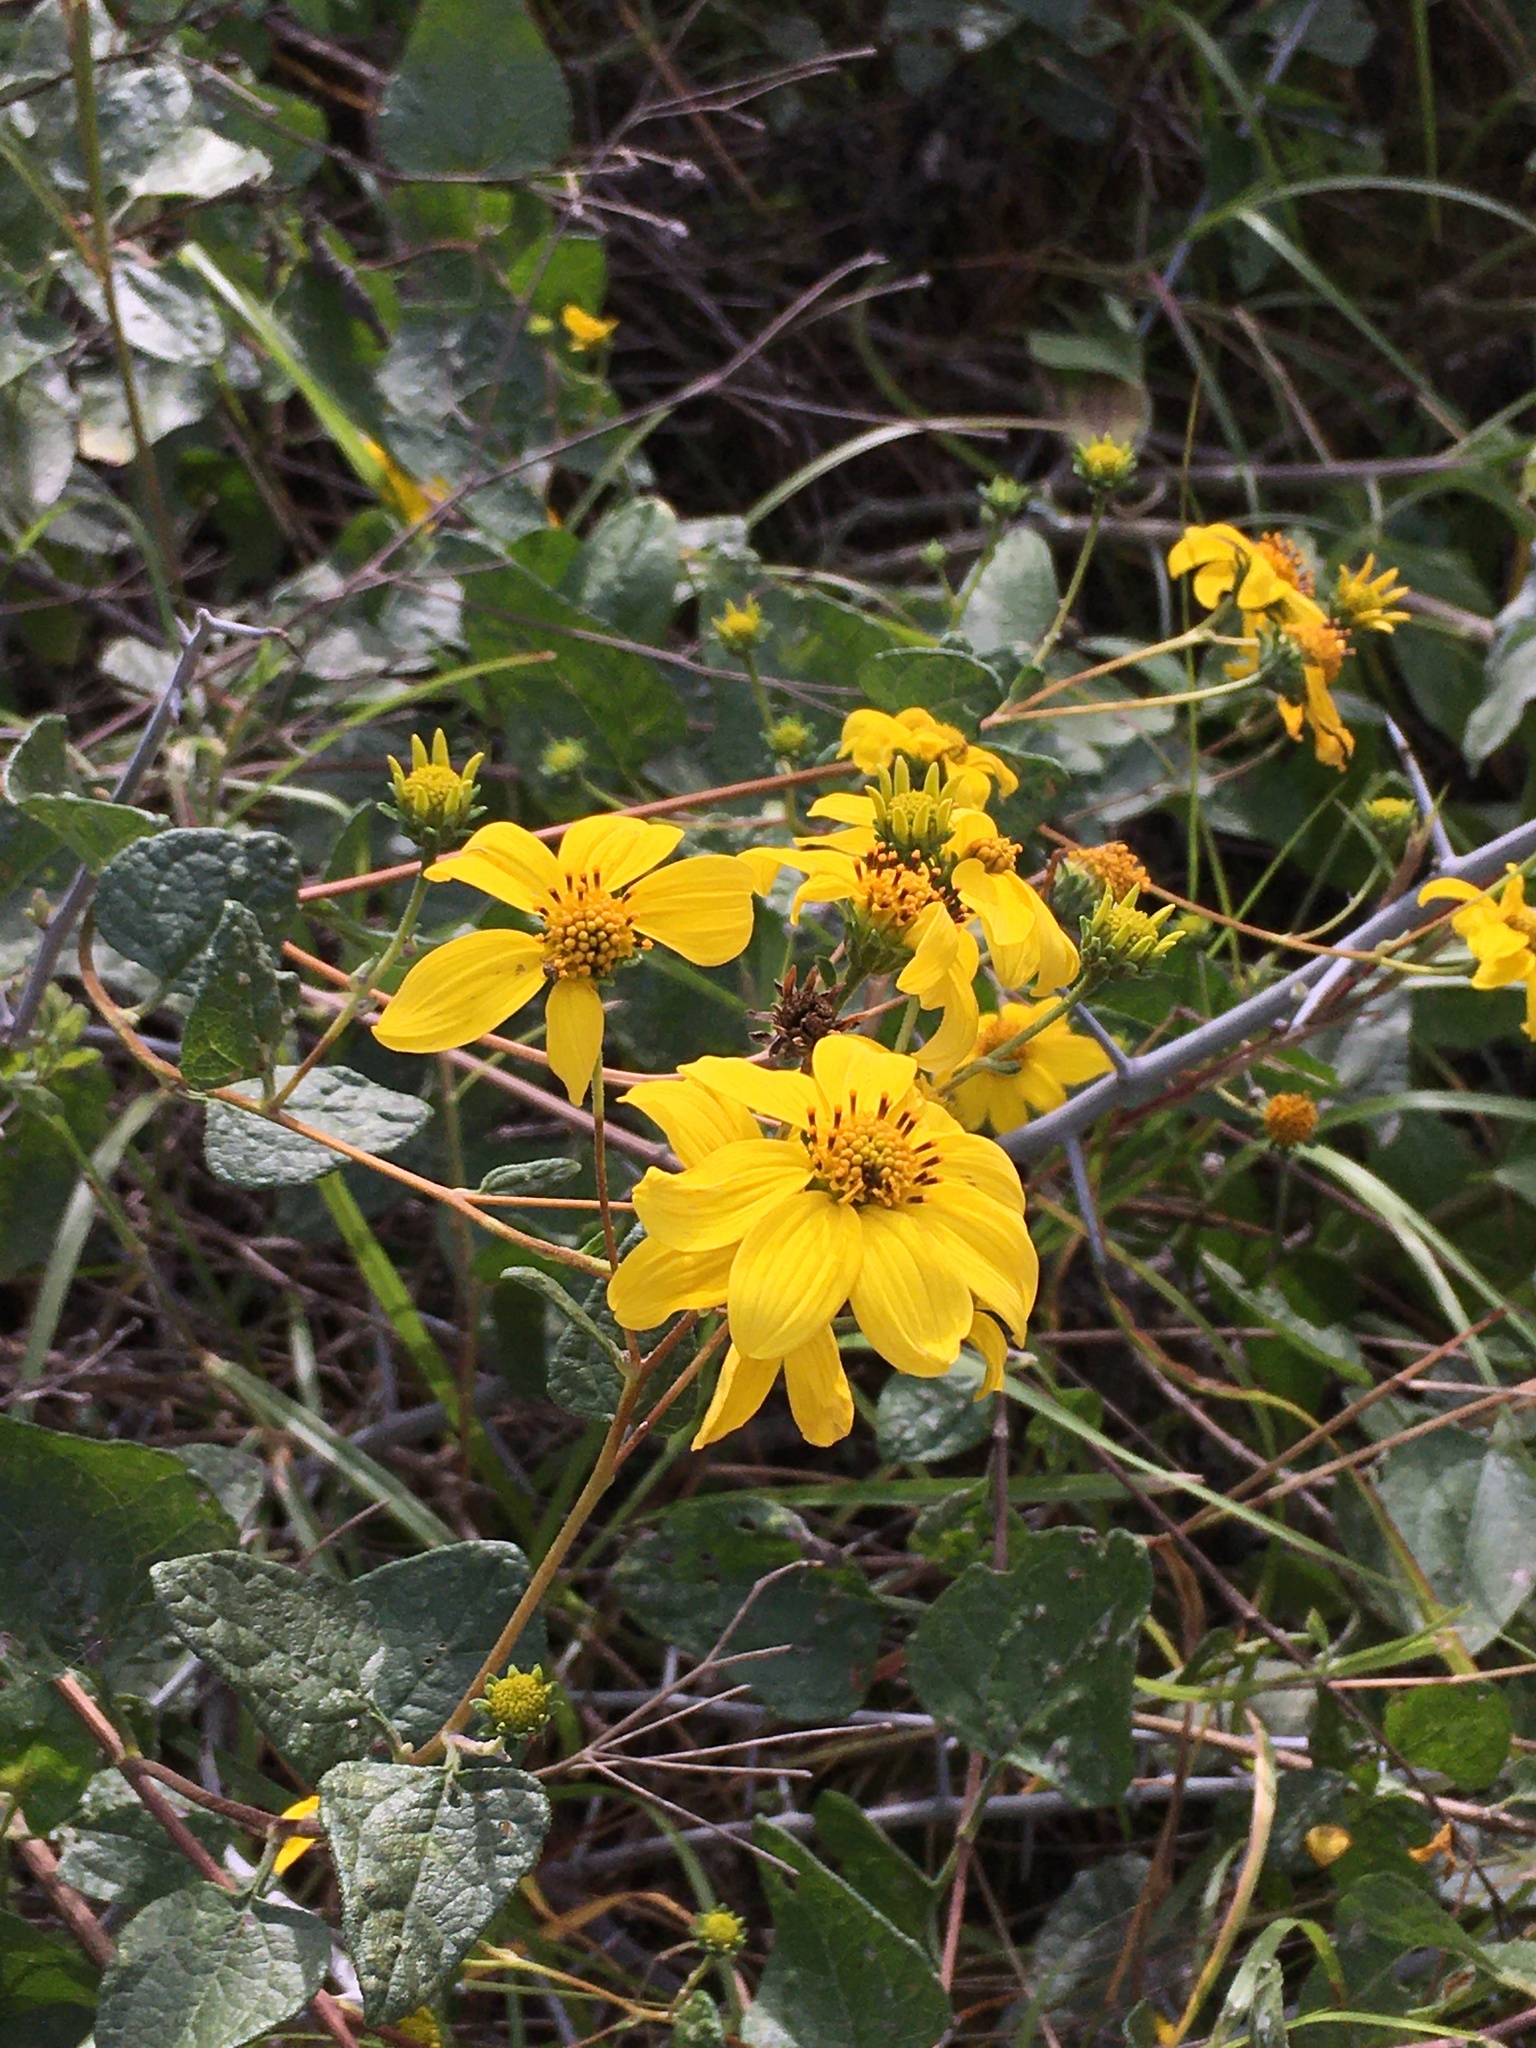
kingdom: Plantae
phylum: Tracheophyta
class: Magnoliopsida
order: Asterales
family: Asteraceae
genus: Bahiopsis
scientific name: Bahiopsis deltoidea
